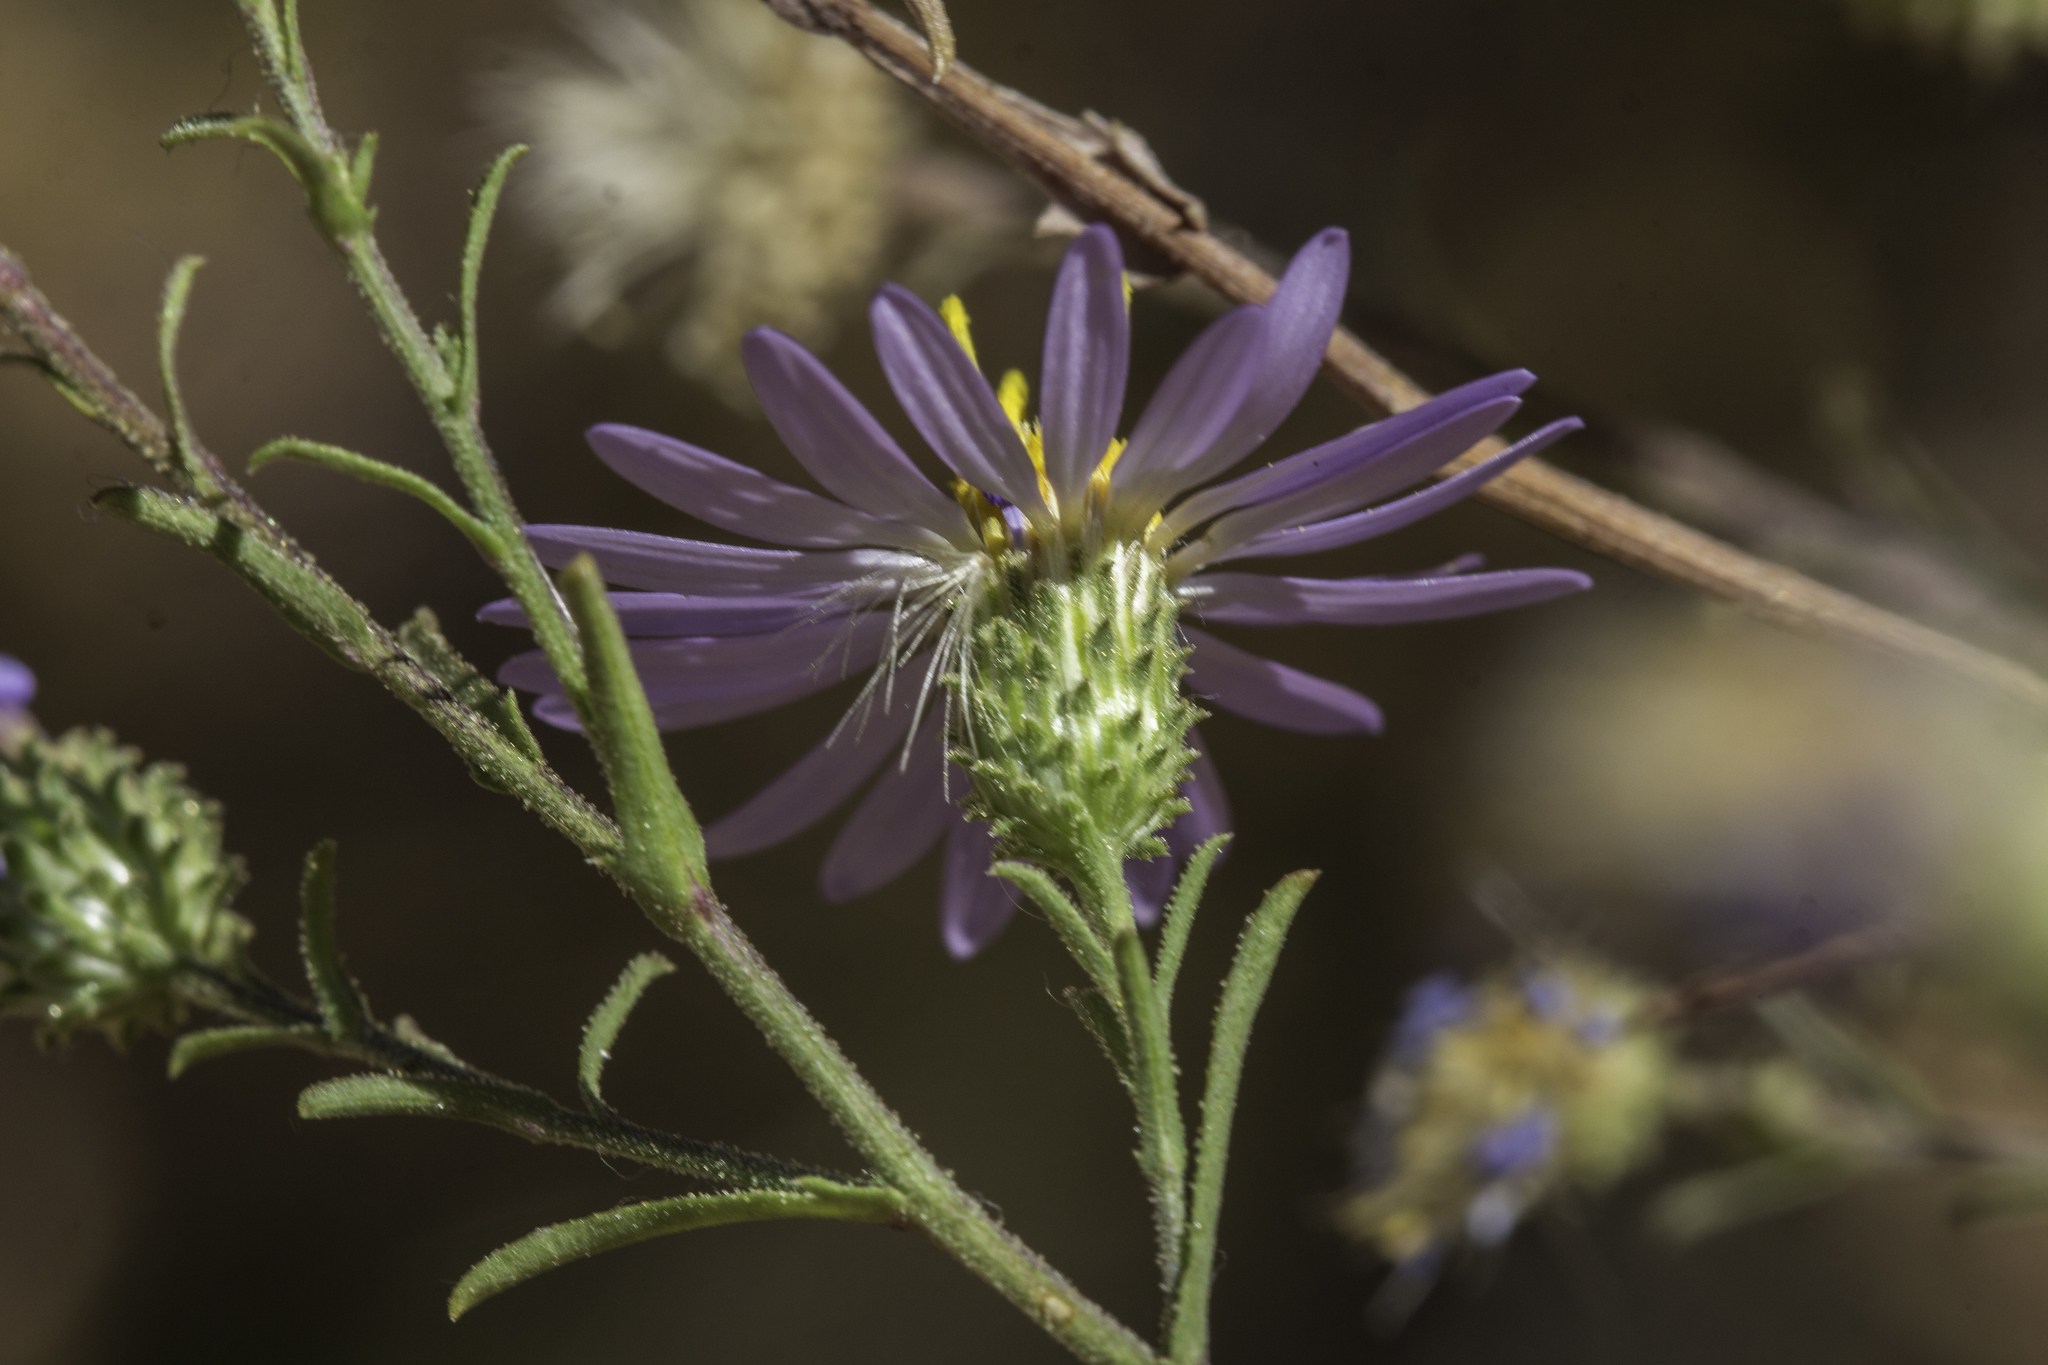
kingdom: Plantae
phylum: Tracheophyta
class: Magnoliopsida
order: Asterales
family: Asteraceae
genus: Dieteria
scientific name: Dieteria canescens
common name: Hoary-aster
